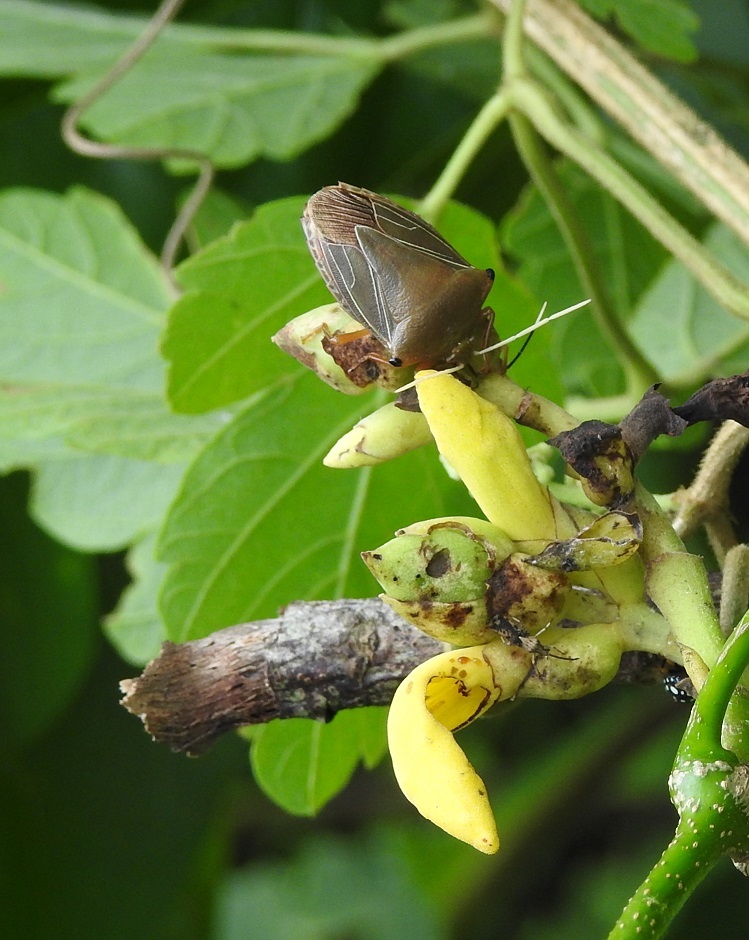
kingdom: Animalia
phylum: Arthropoda
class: Insecta
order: Hemiptera
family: Pentatomidae
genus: Edessa
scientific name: Edessa nigroangulata
